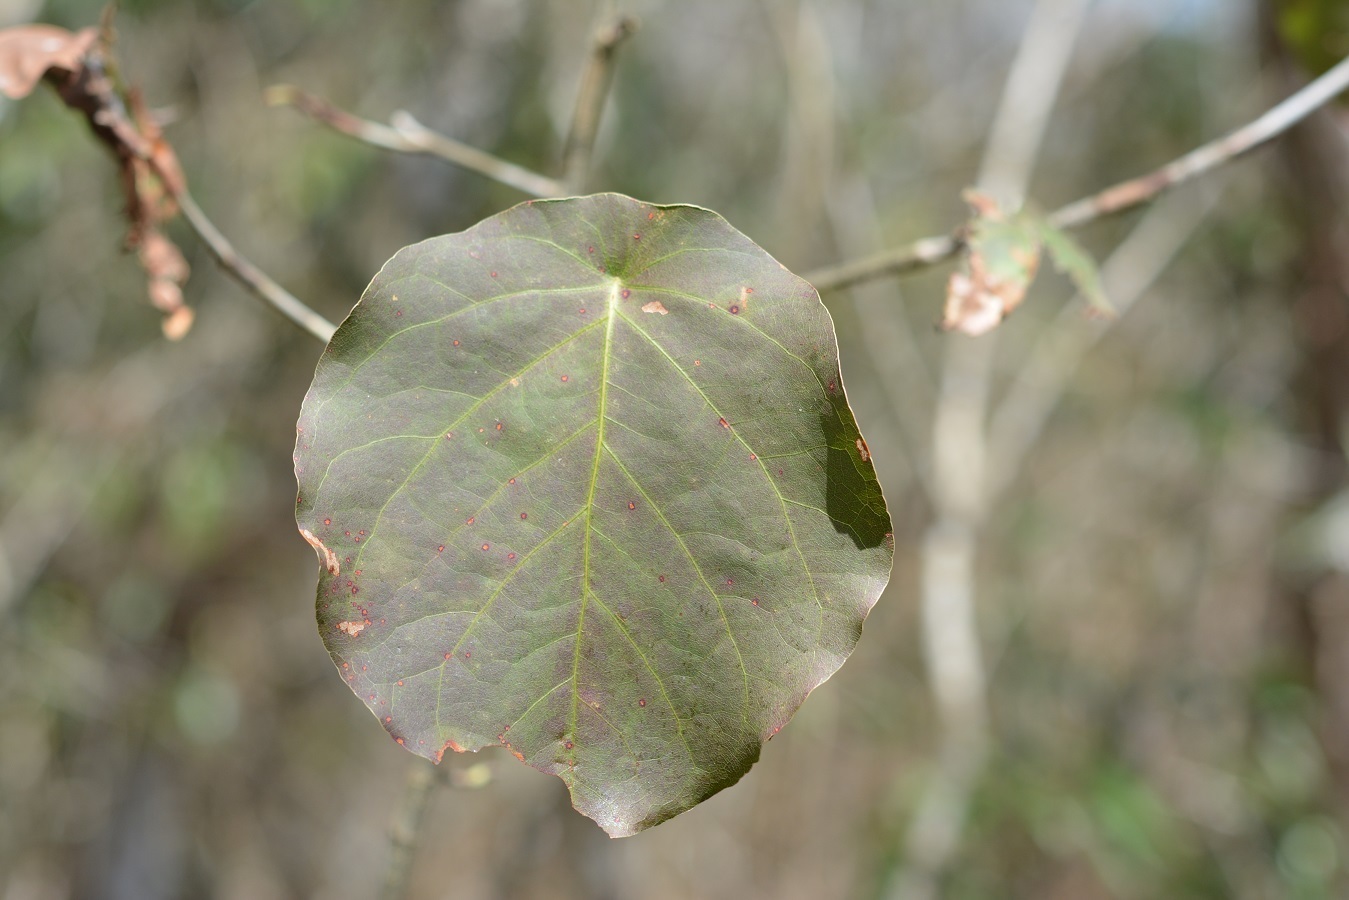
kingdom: Plantae
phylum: Tracheophyta
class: Magnoliopsida
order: Caryophyllales
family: Polygonaceae
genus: Coccoloba
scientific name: Coccoloba acapulcensis
